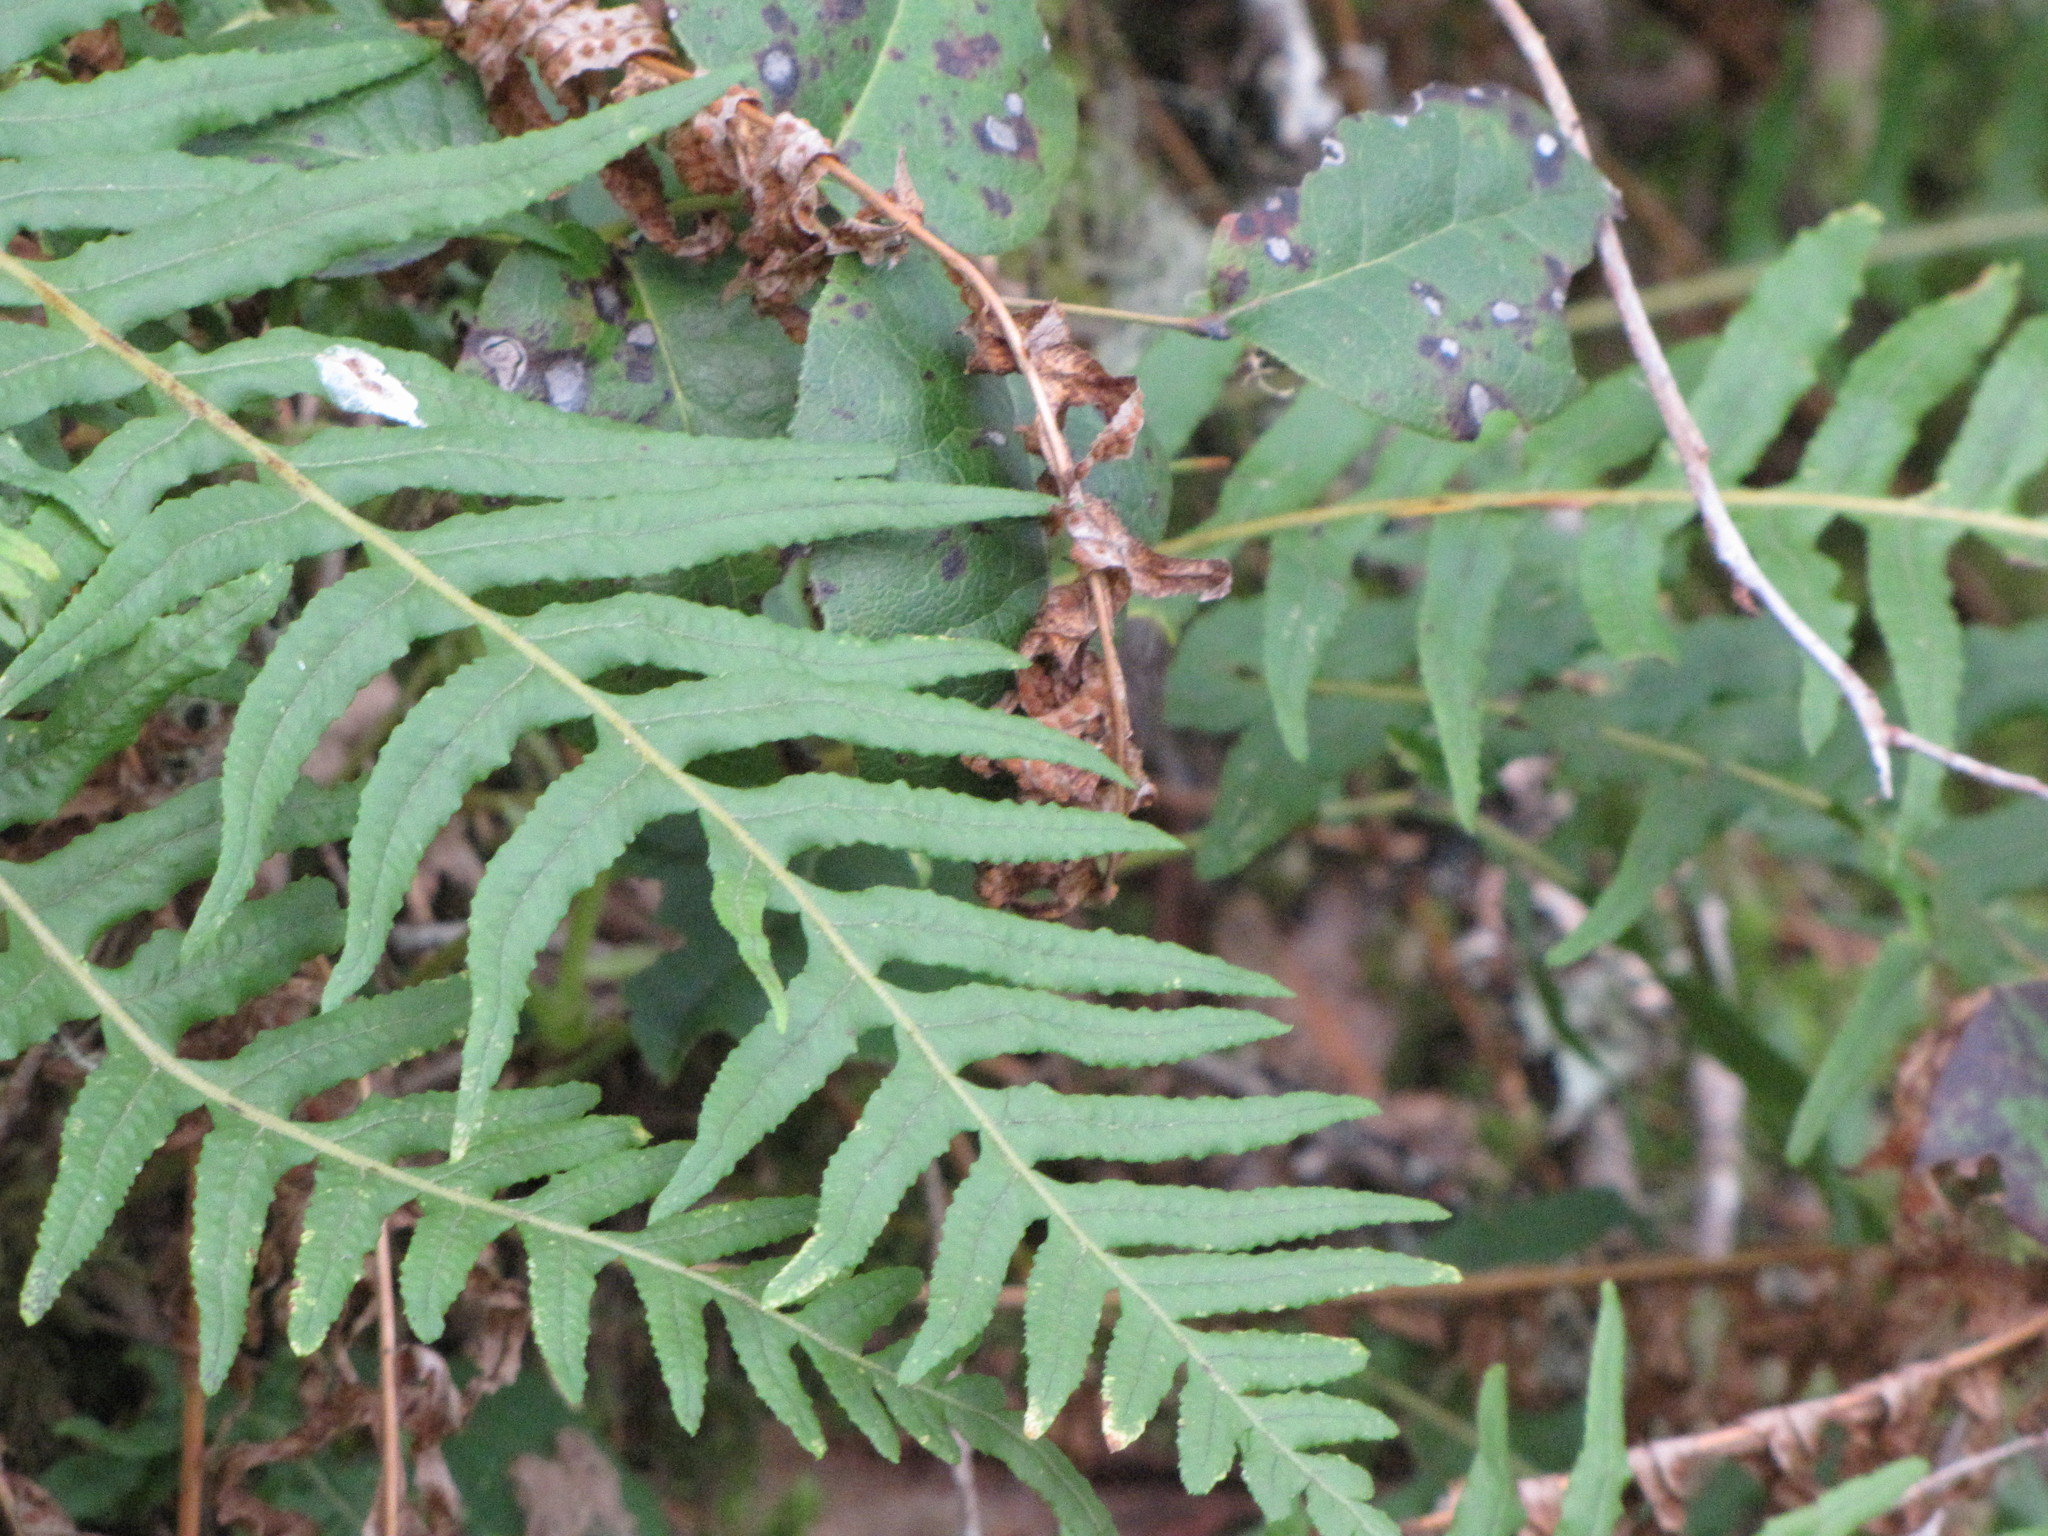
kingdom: Plantae
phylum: Tracheophyta
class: Polypodiopsida
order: Polypodiales
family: Polypodiaceae
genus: Polypodium
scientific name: Polypodium glycyrrhiza
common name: Licorice fern
